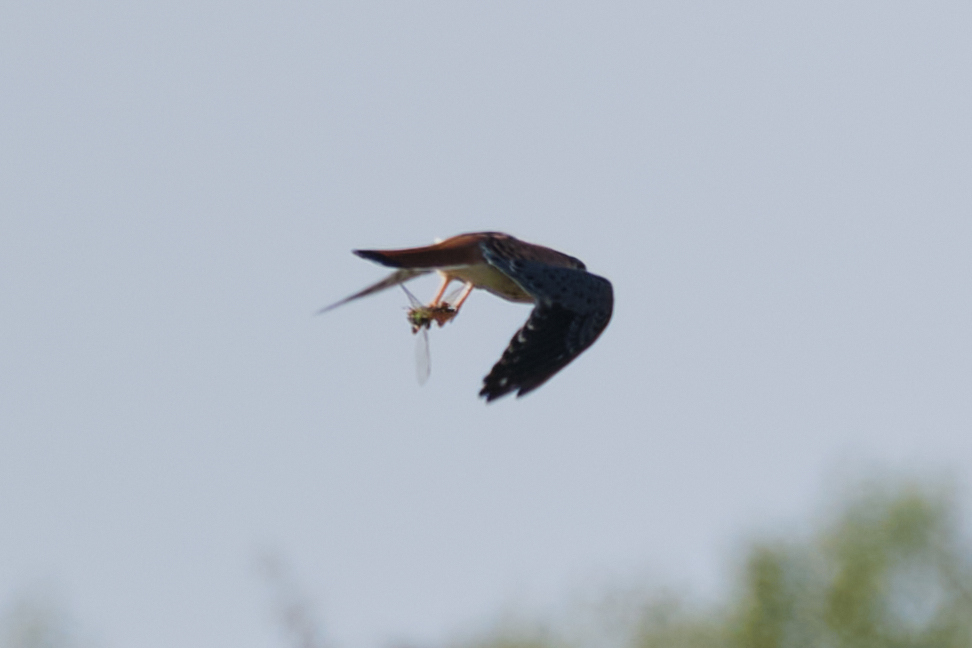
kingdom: Animalia
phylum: Chordata
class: Aves
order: Falconiformes
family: Falconidae
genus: Falco
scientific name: Falco sparverius
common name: American kestrel
